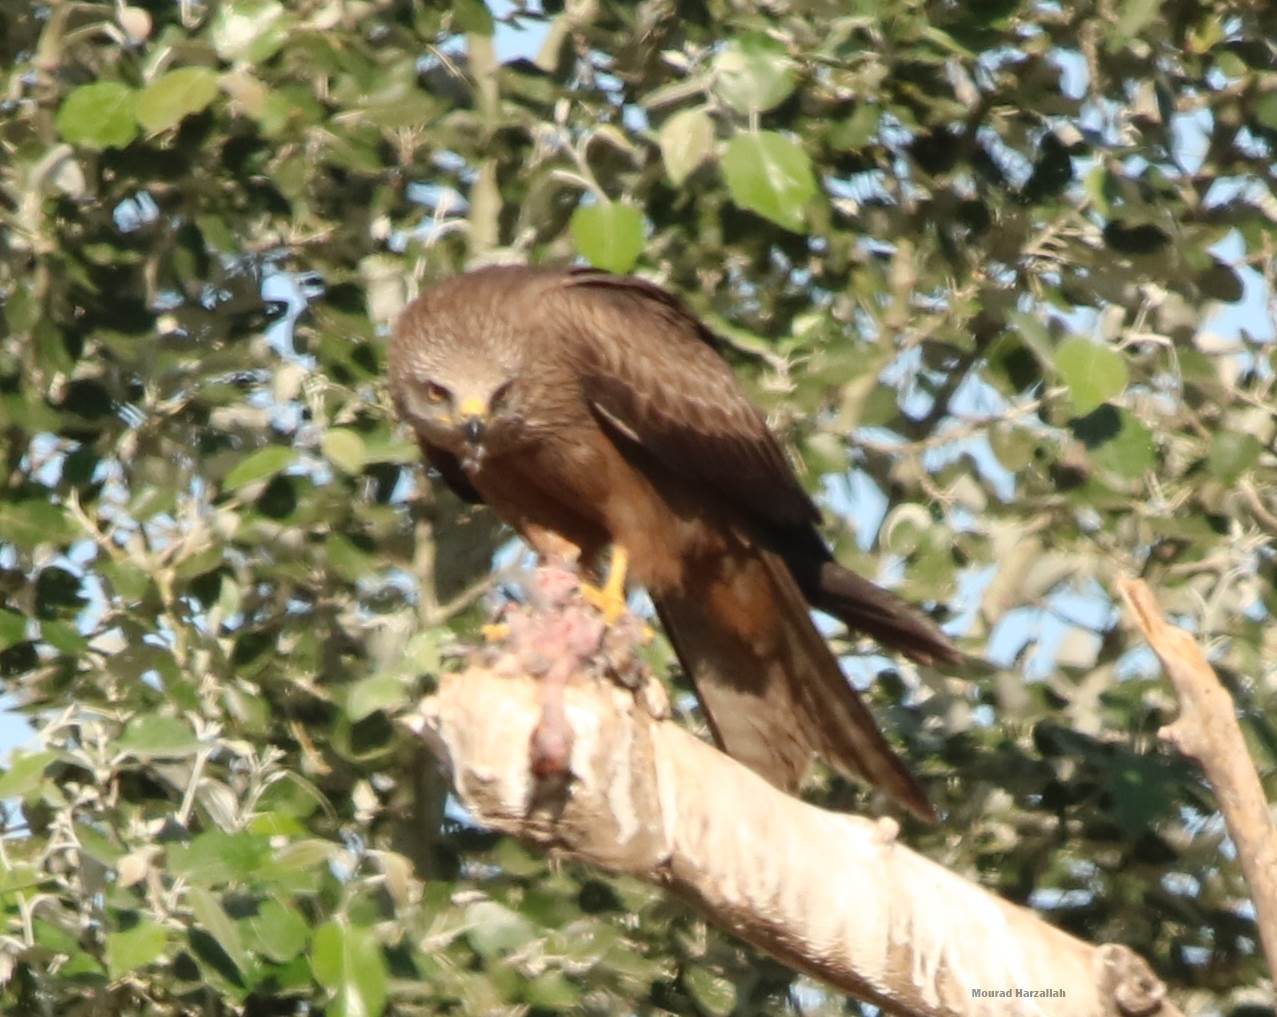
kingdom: Animalia
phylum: Chordata
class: Aves
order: Accipitriformes
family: Accipitridae
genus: Milvus
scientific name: Milvus migrans
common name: Black kite
